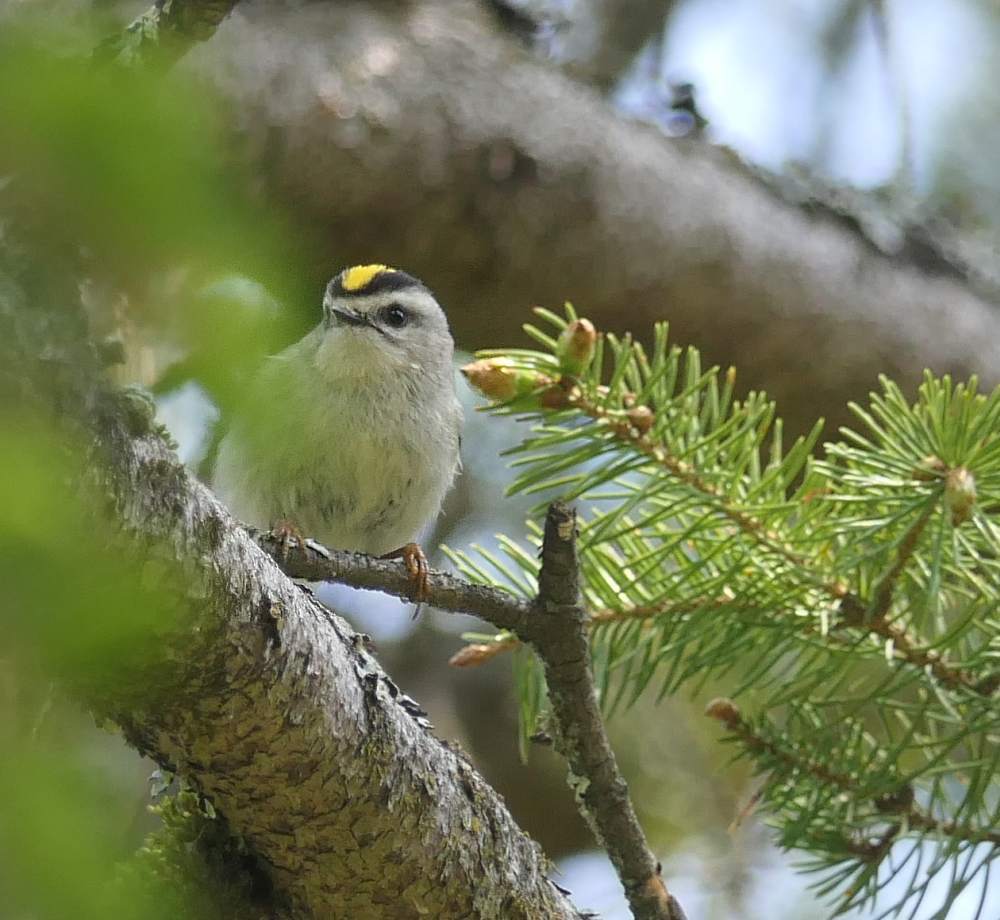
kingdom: Animalia
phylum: Chordata
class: Aves
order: Passeriformes
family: Regulidae
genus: Regulus
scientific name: Regulus satrapa
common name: Golden-crowned kinglet
